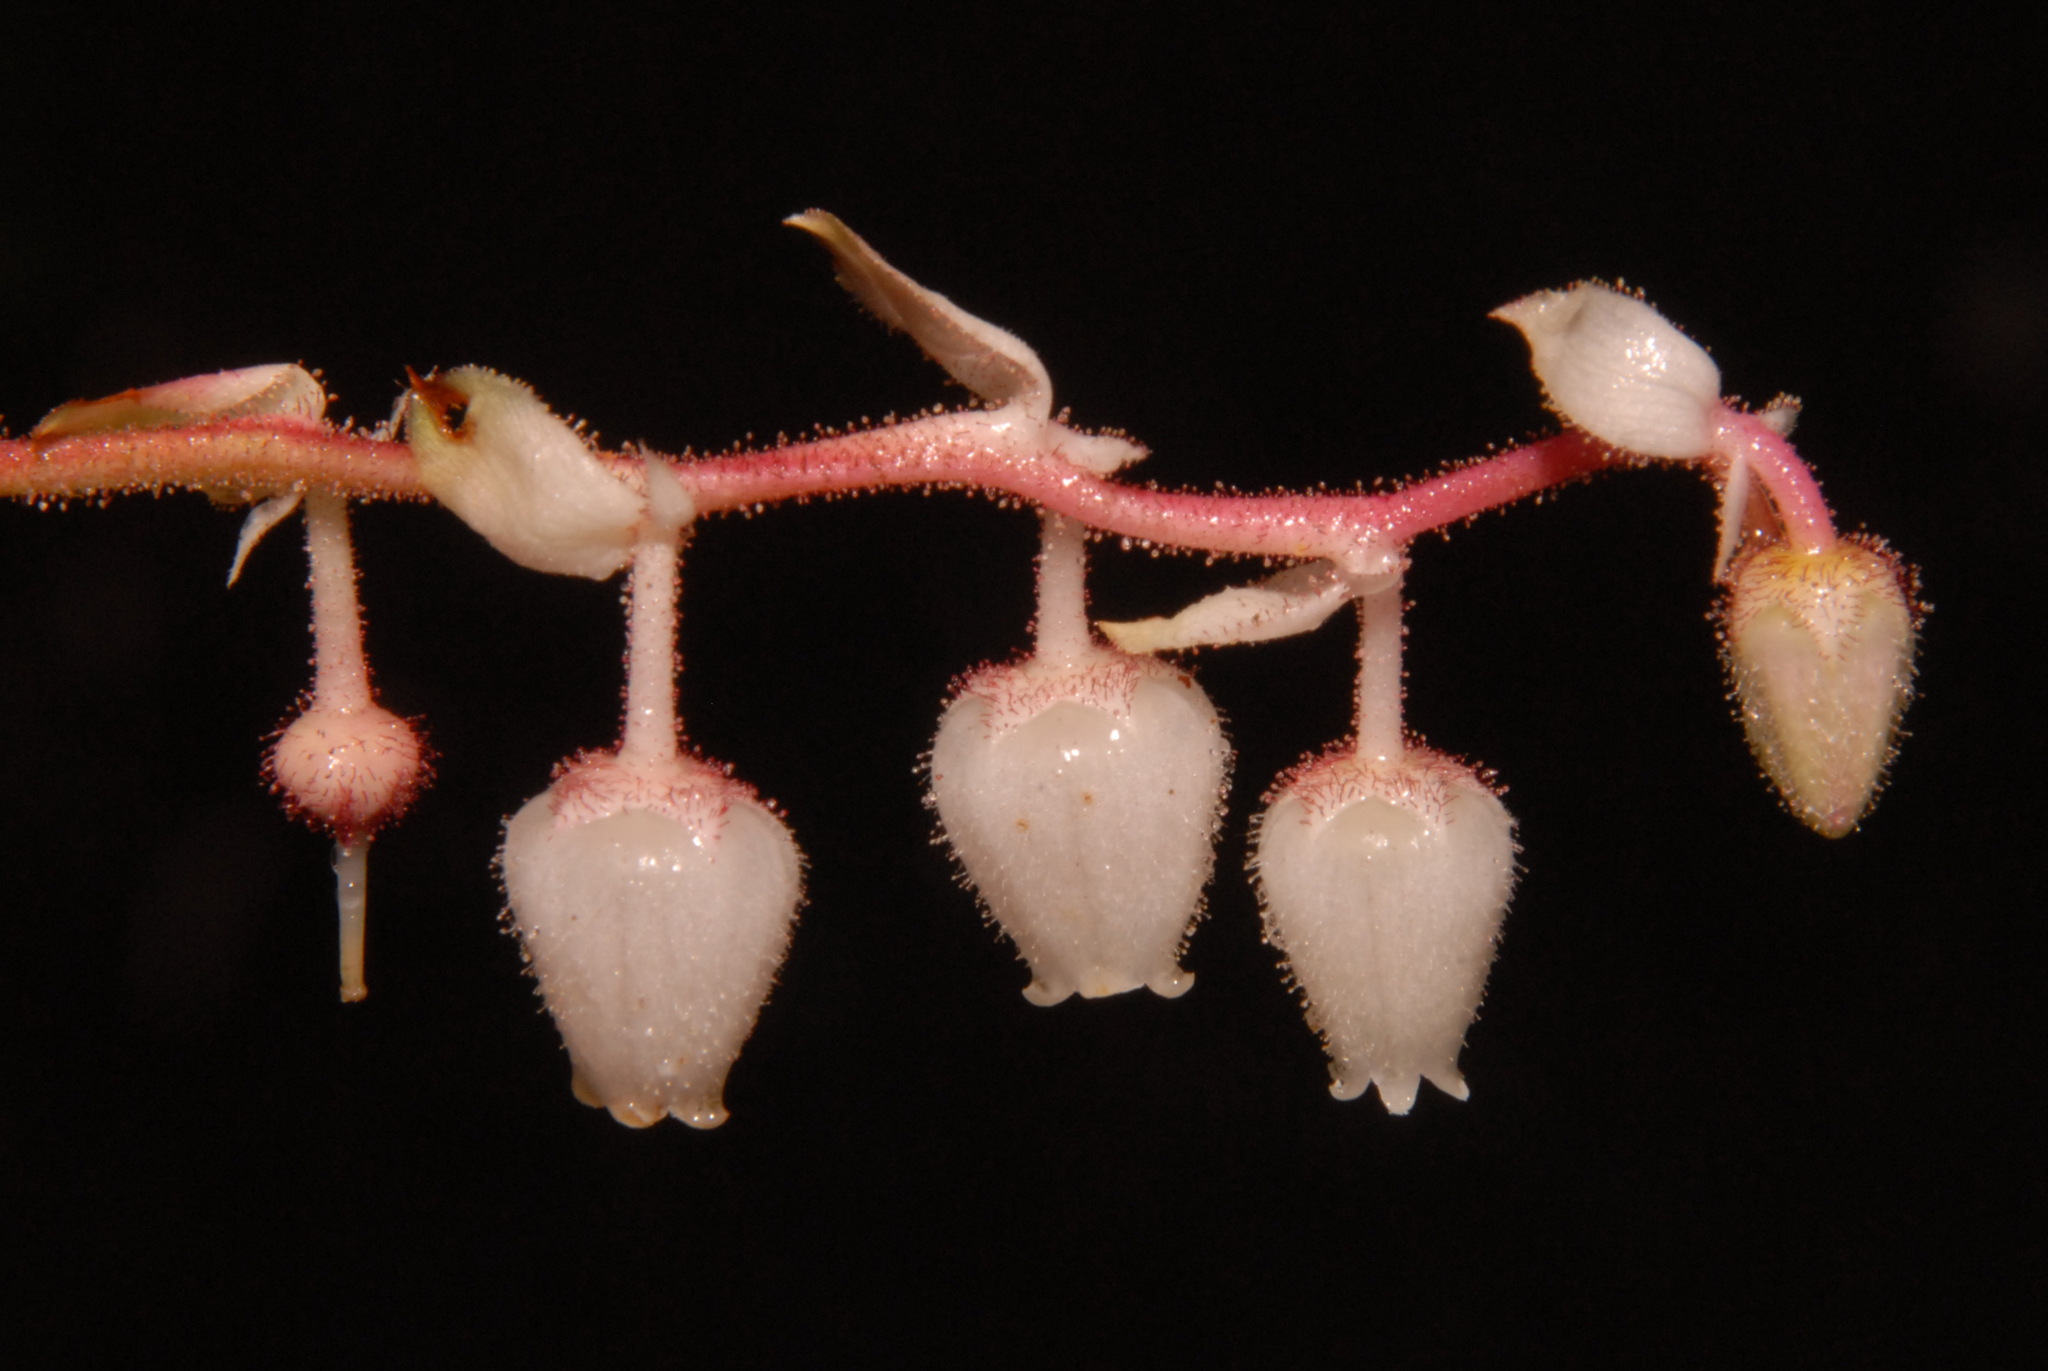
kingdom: Plantae
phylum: Tracheophyta
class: Magnoliopsida
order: Ericales
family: Ericaceae
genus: Gaultheria
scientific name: Gaultheria shallon
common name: Shallon
